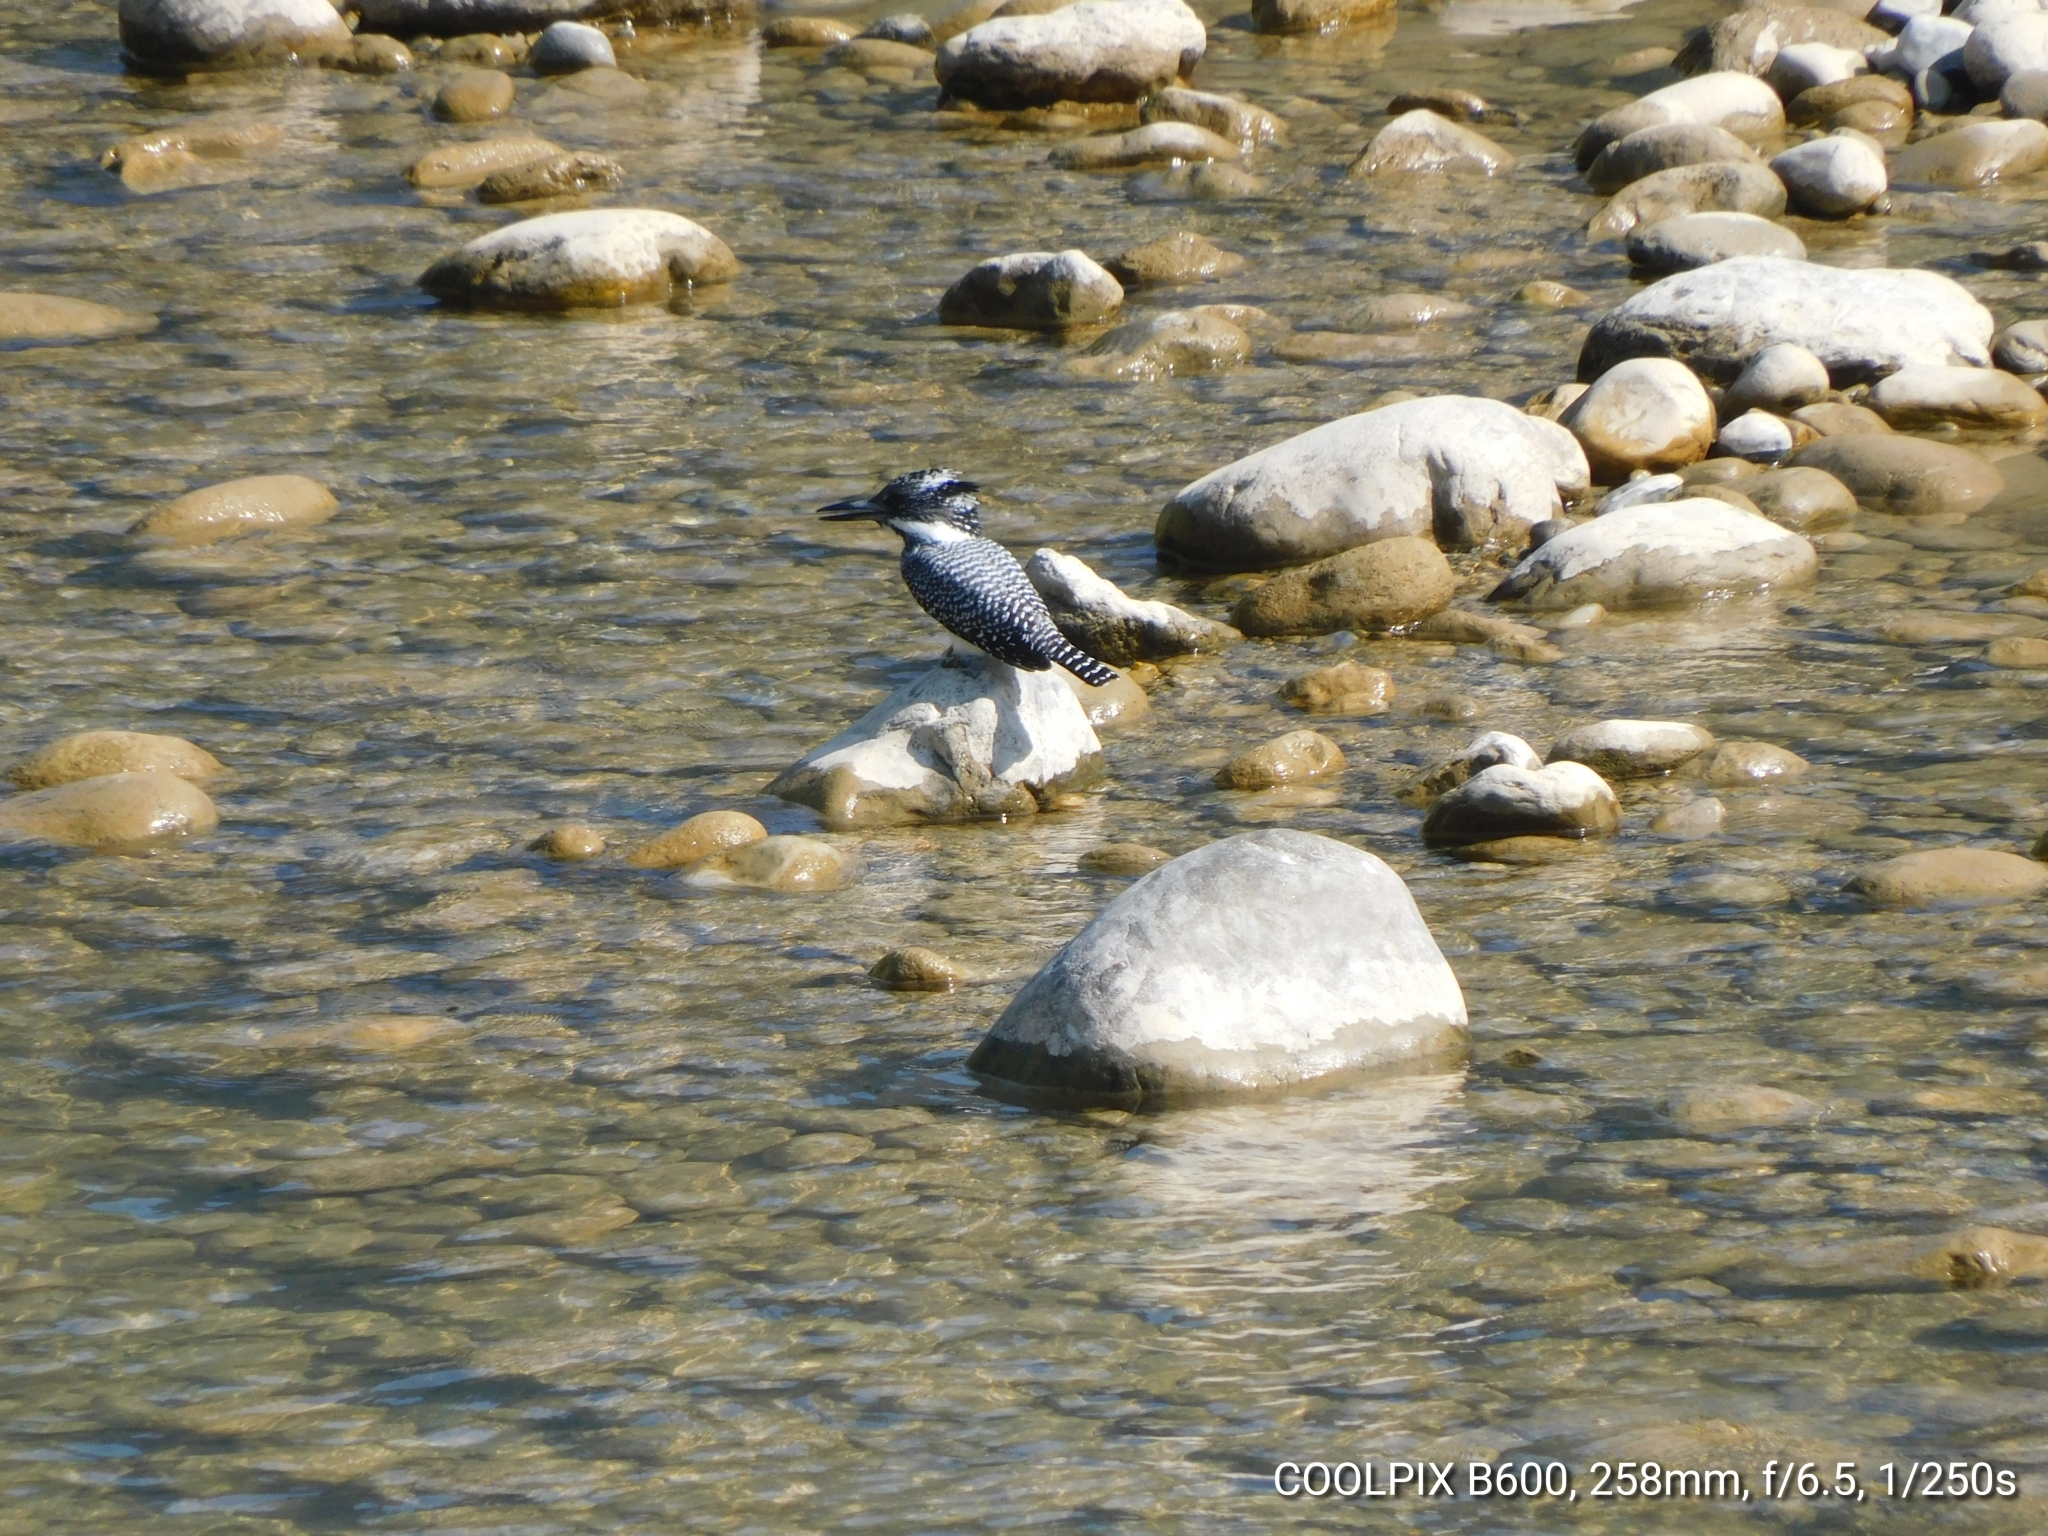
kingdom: Animalia
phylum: Chordata
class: Aves
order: Coraciiformes
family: Alcedinidae
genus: Megaceryle
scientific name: Megaceryle lugubris
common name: Crested kingfisher
